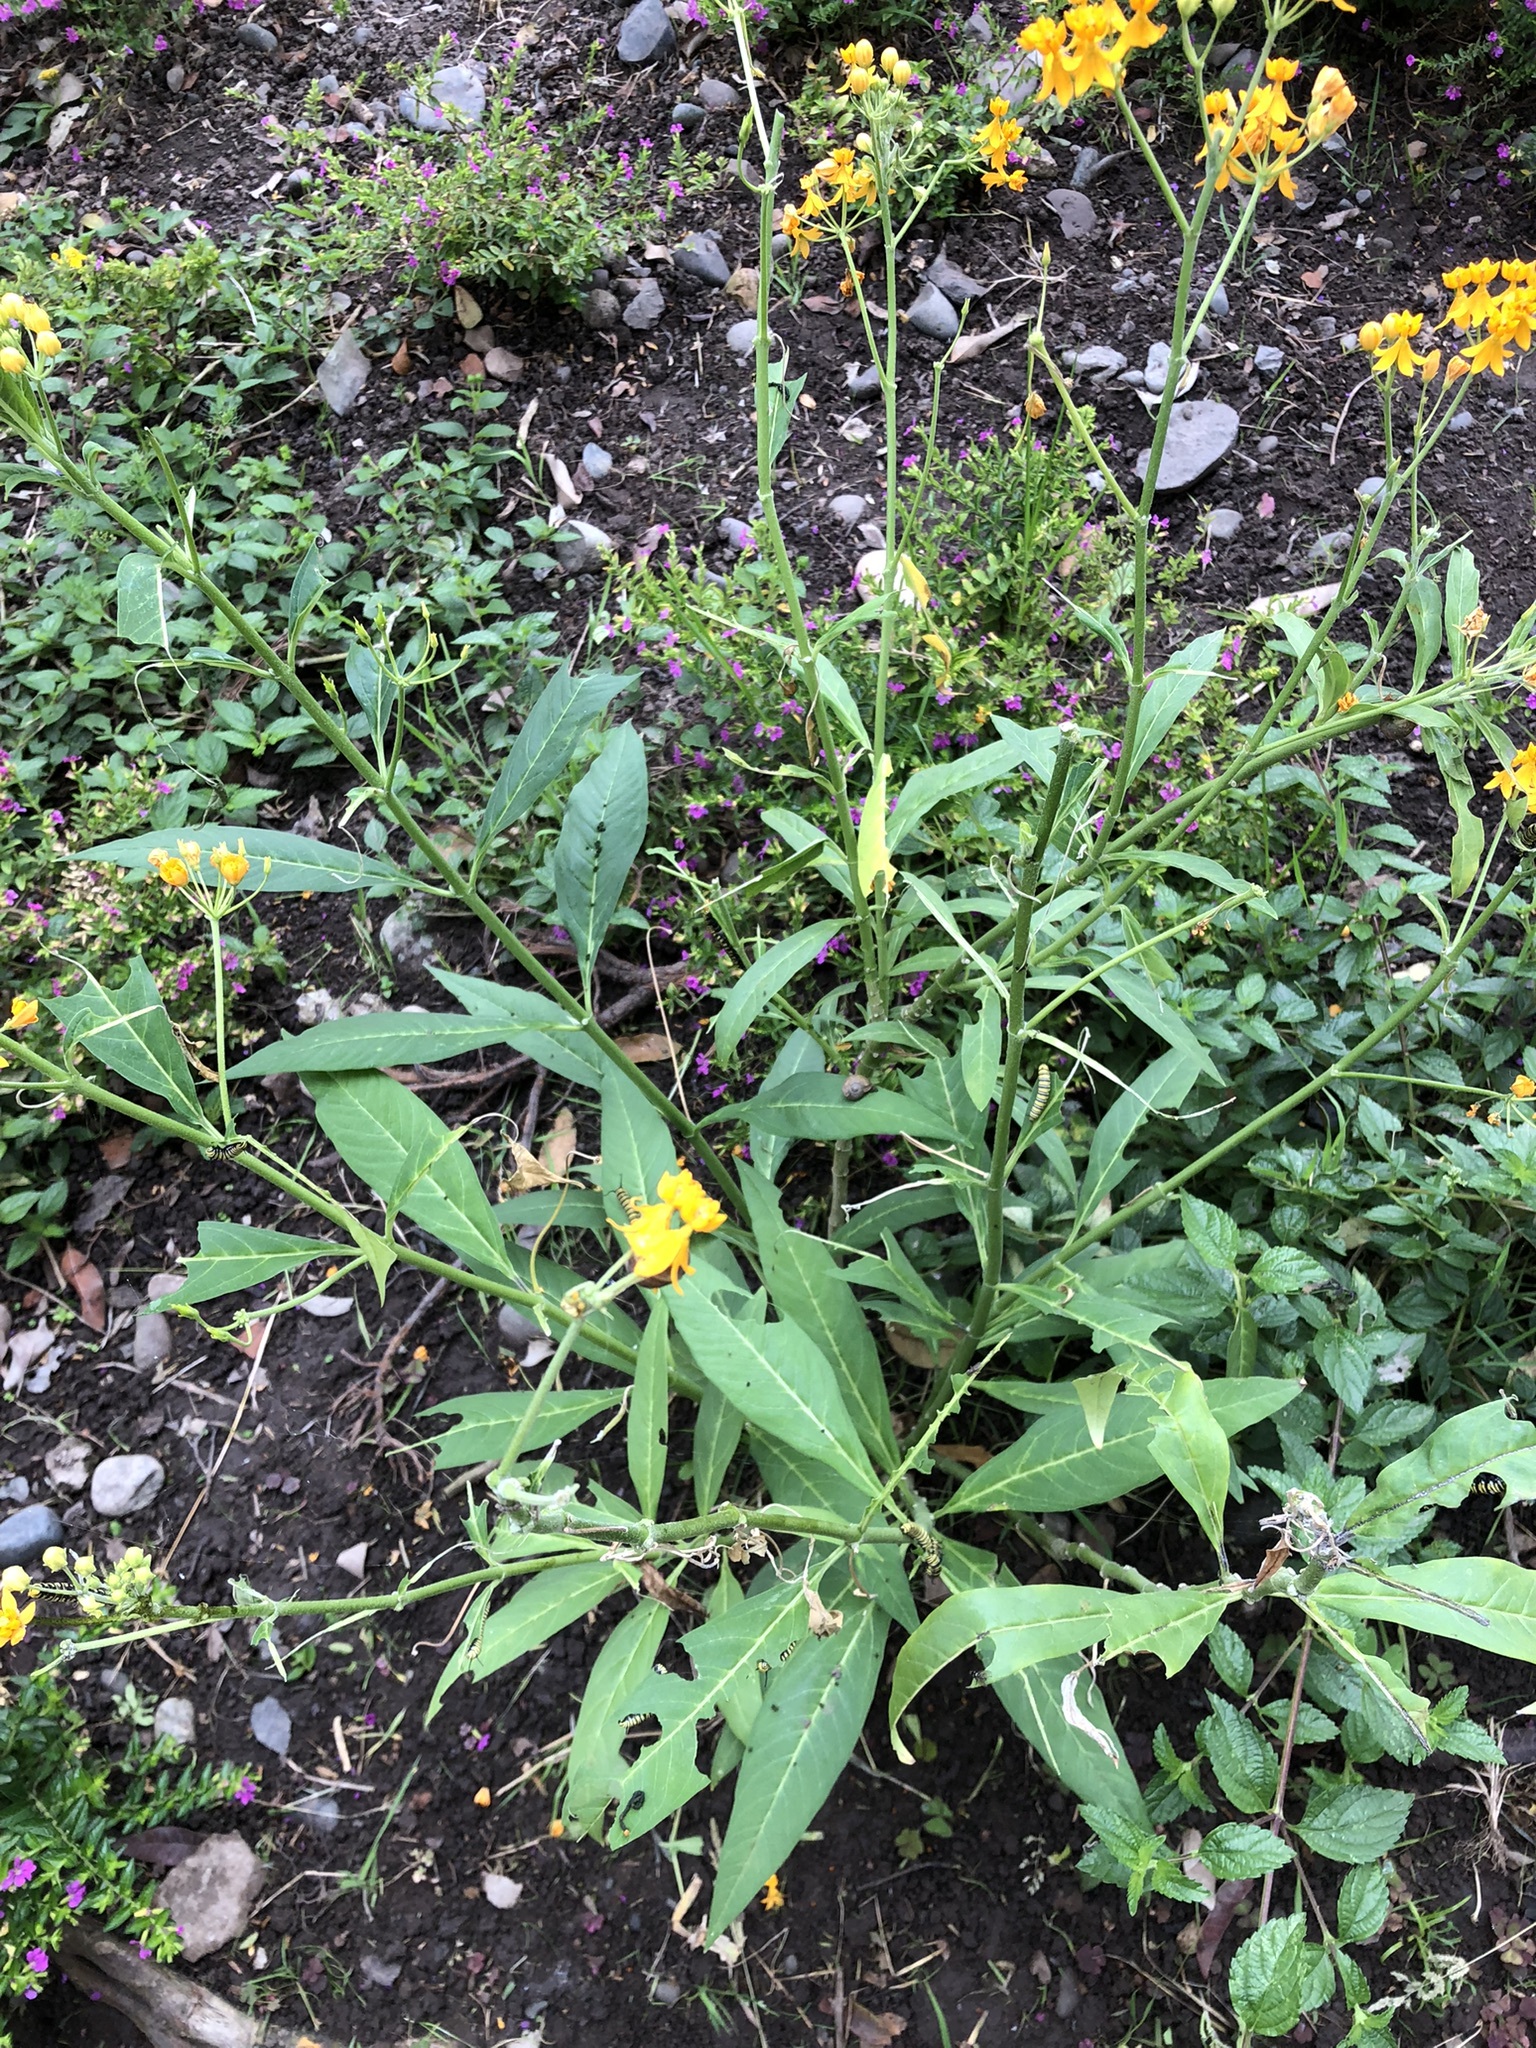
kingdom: Plantae
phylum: Tracheophyta
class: Magnoliopsida
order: Gentianales
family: Apocynaceae
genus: Asclepias
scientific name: Asclepias curassavica
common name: Bloodflower
